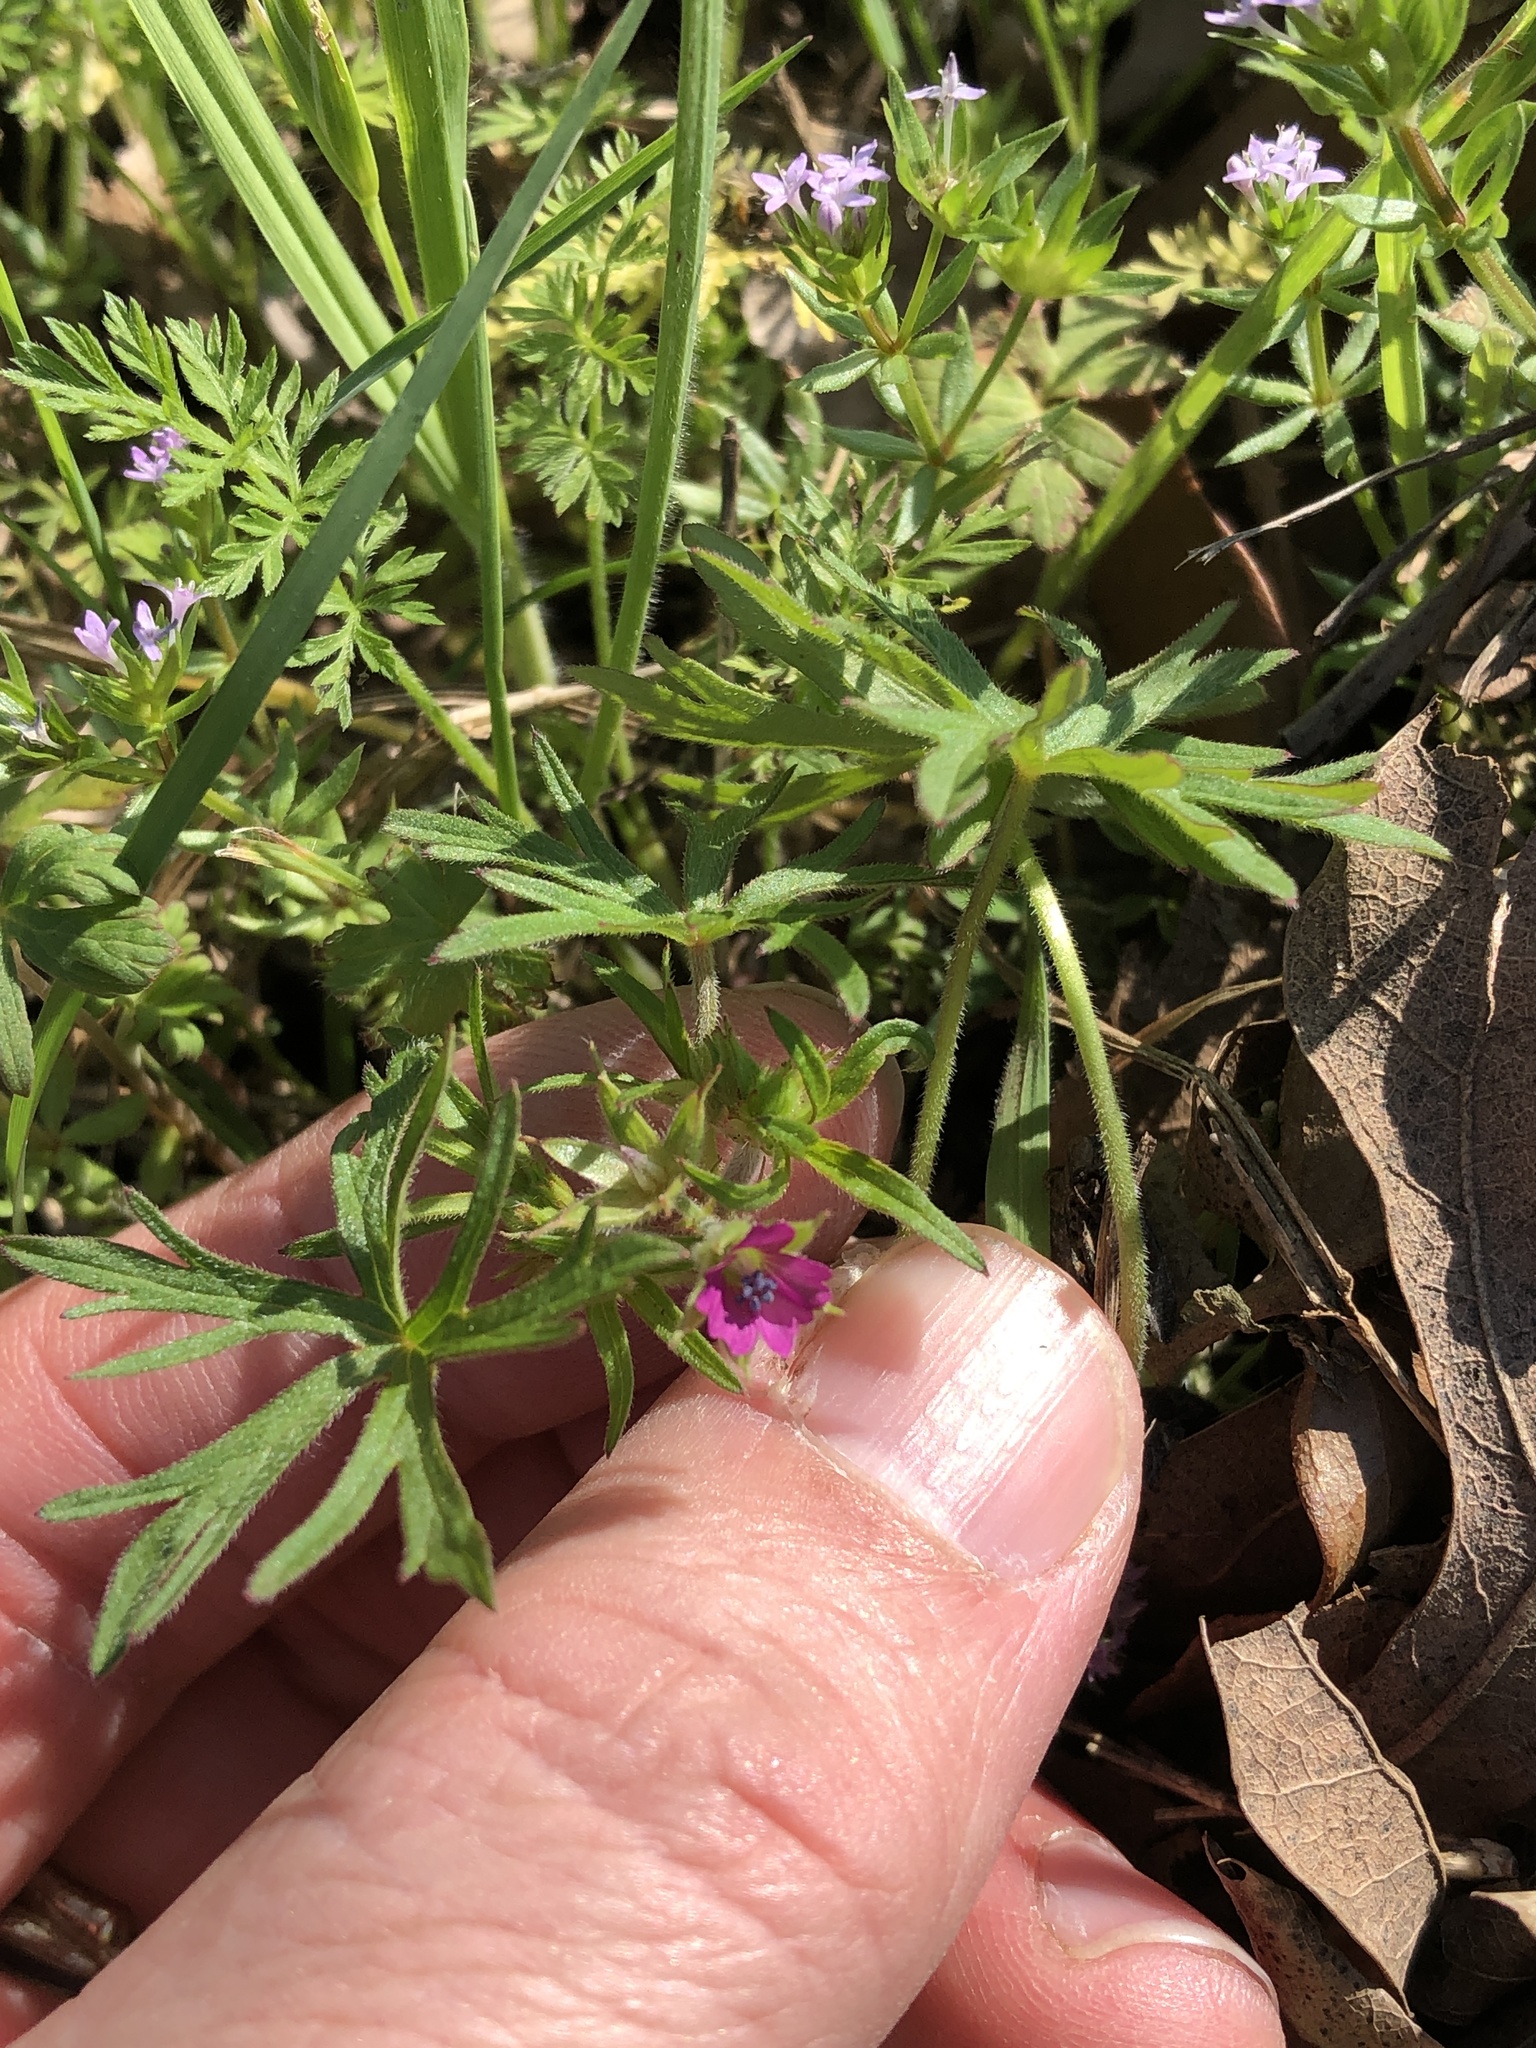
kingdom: Plantae
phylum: Tracheophyta
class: Magnoliopsida
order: Geraniales
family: Geraniaceae
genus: Geranium
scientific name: Geranium dissectum
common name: Cut-leaved crane's-bill
